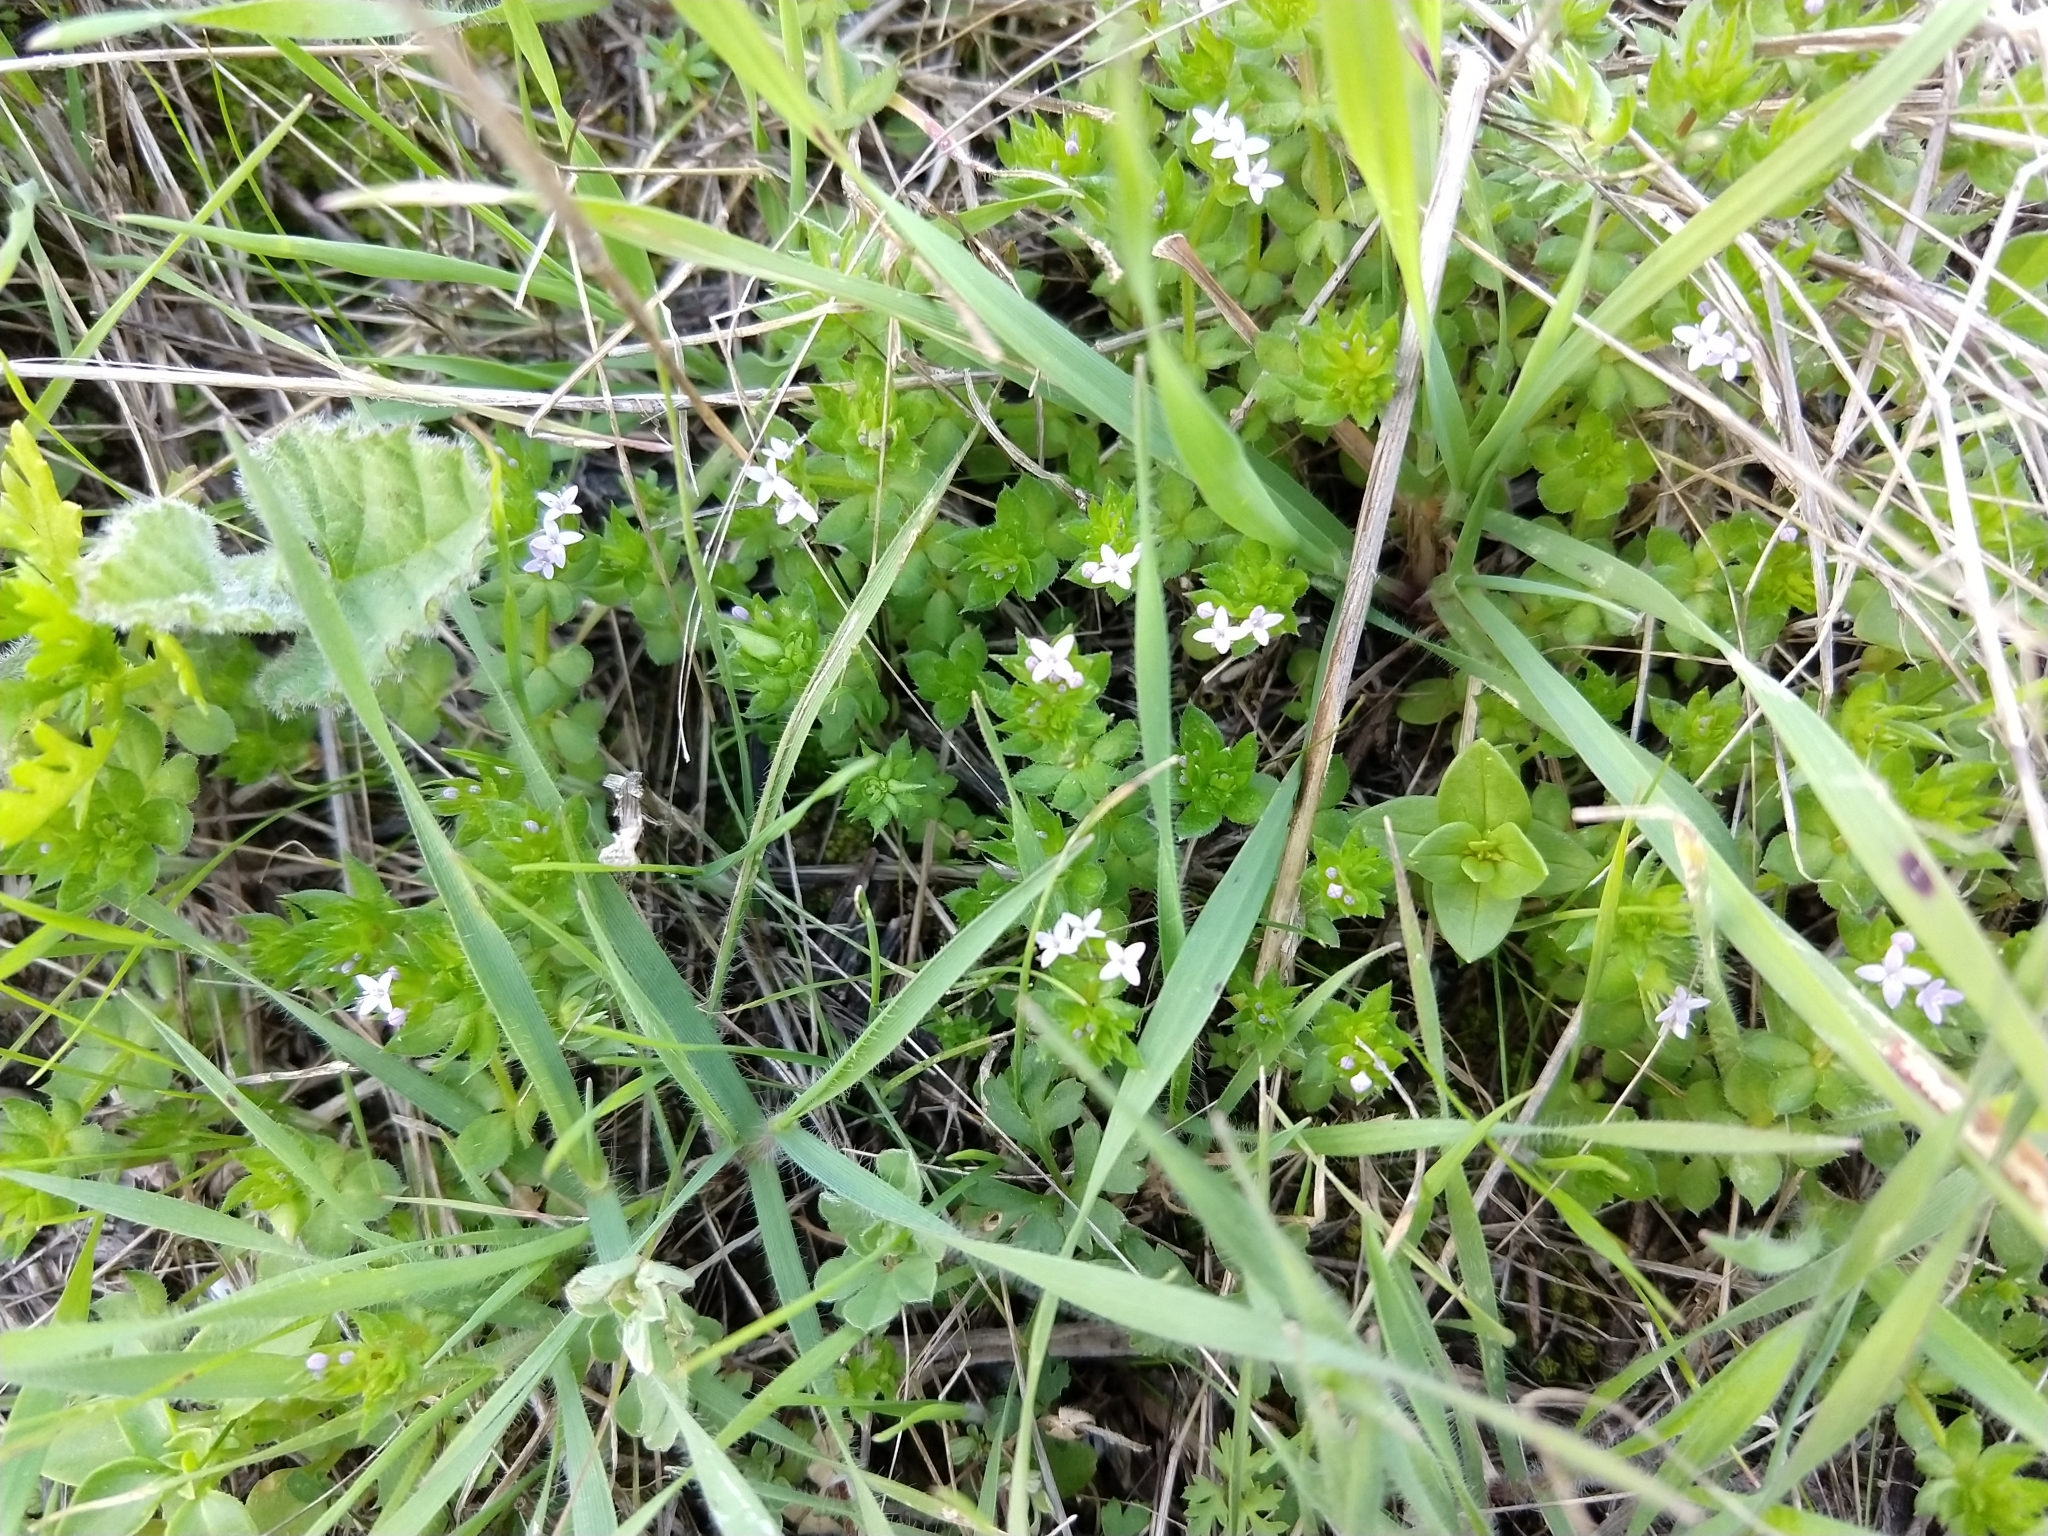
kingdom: Plantae
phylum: Tracheophyta
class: Magnoliopsida
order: Gentianales
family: Rubiaceae
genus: Sherardia
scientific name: Sherardia arvensis
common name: Field madder
